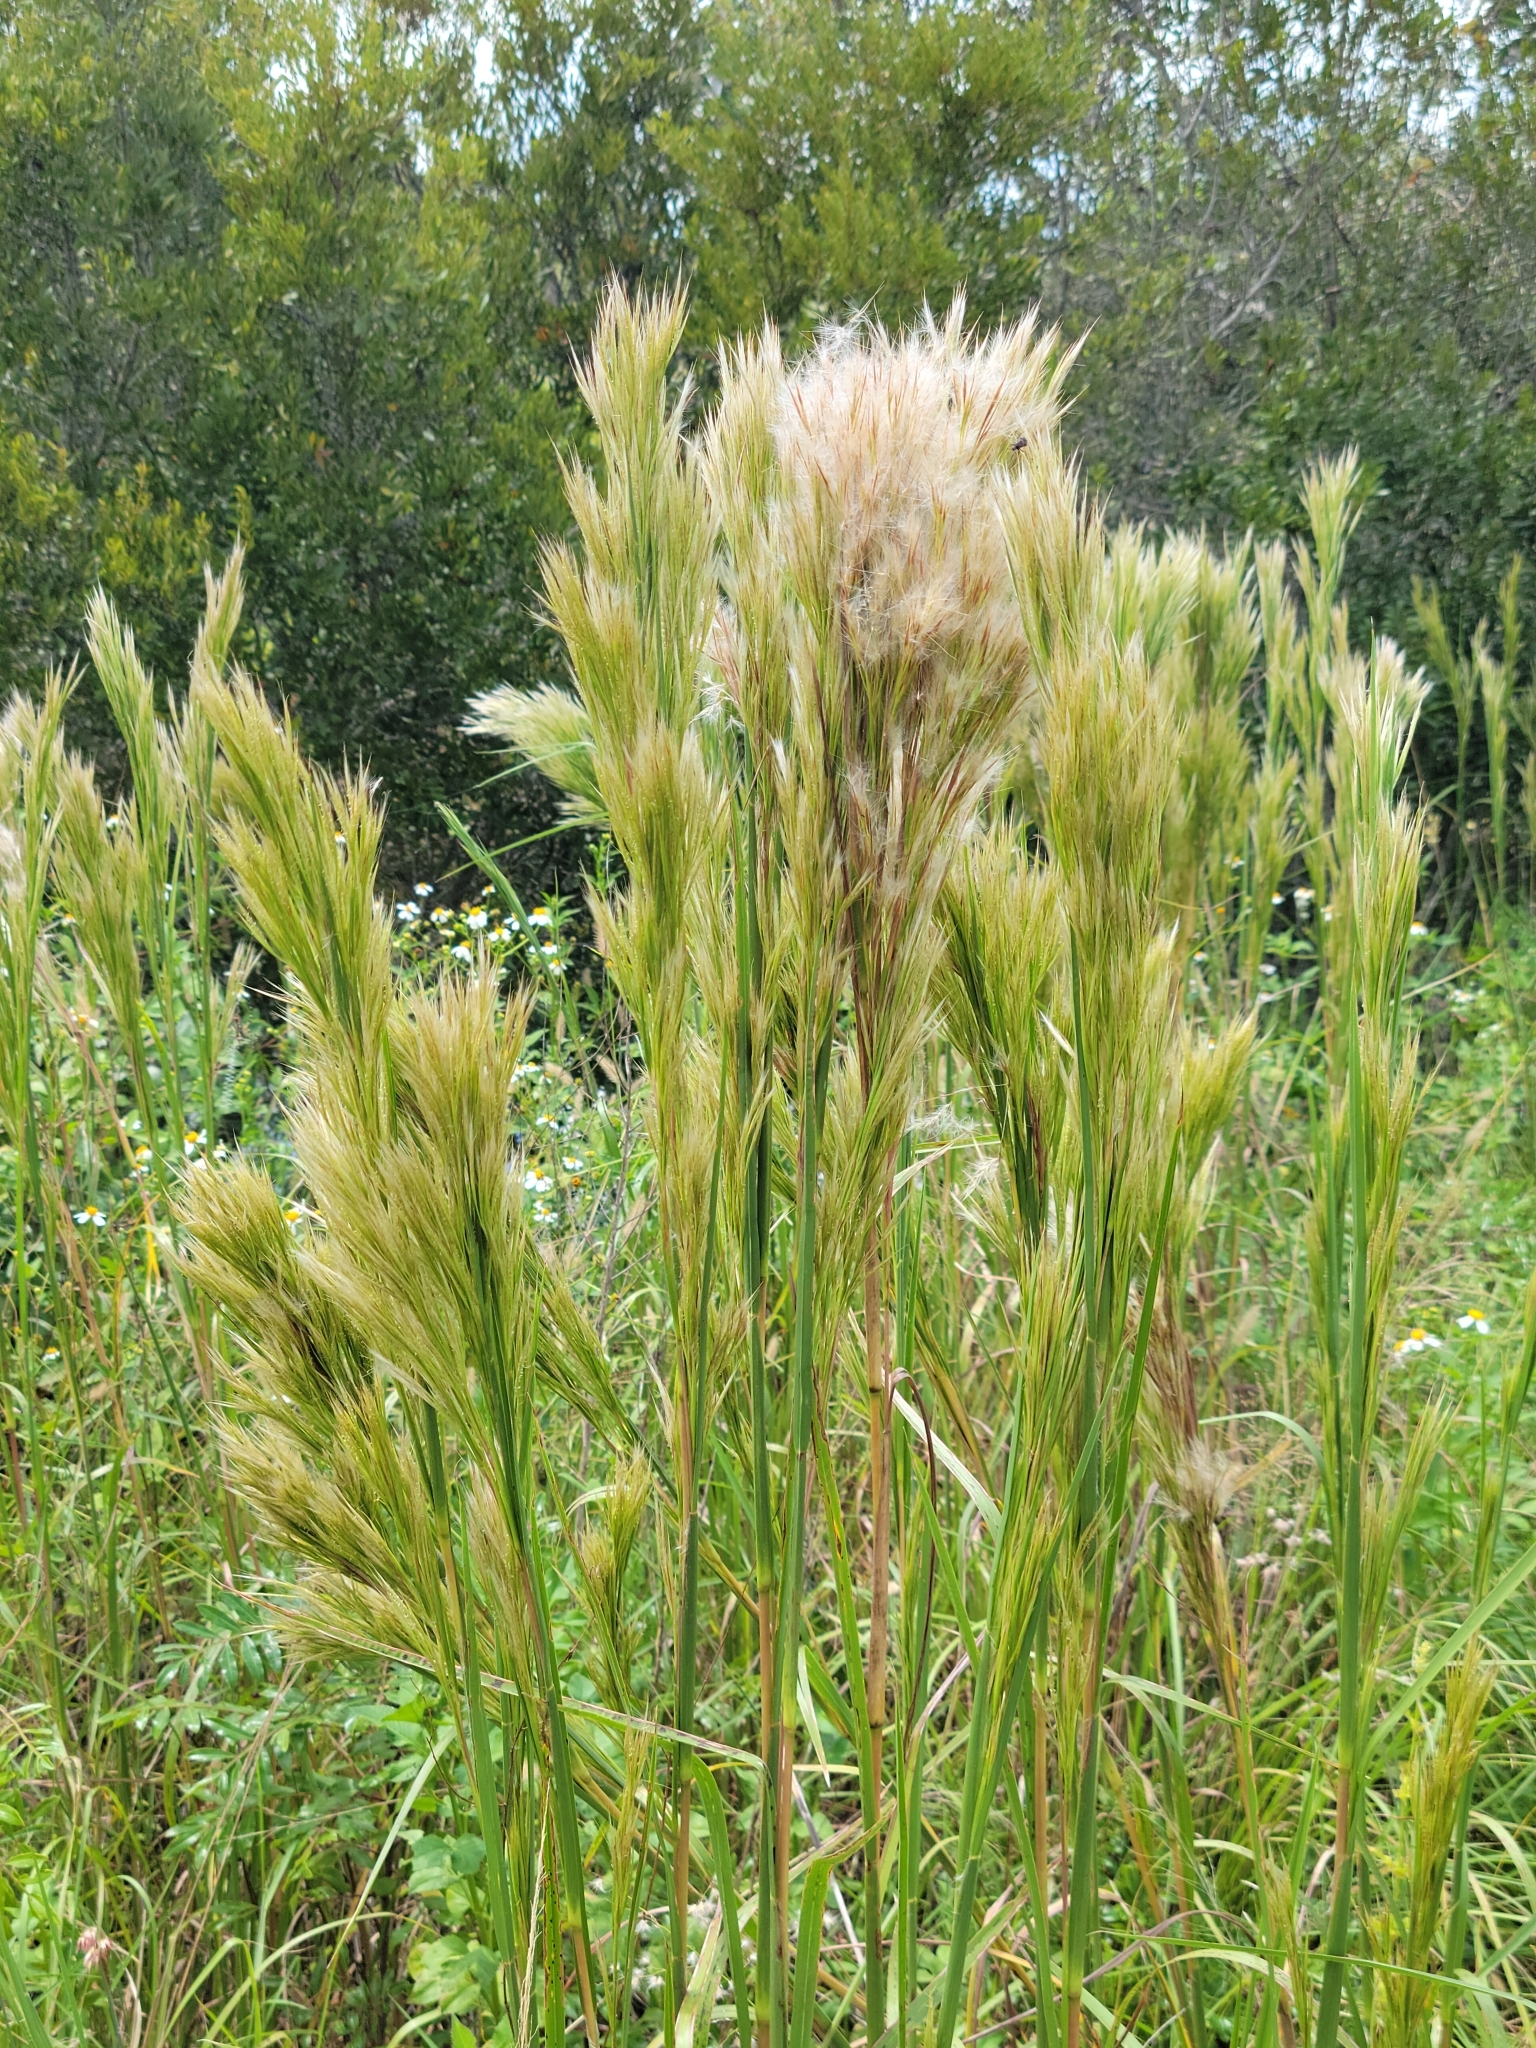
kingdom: Plantae
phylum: Tracheophyta
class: Liliopsida
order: Poales
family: Poaceae
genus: Andropogon
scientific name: Andropogon tenuispatheus
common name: Bushy bluestem
